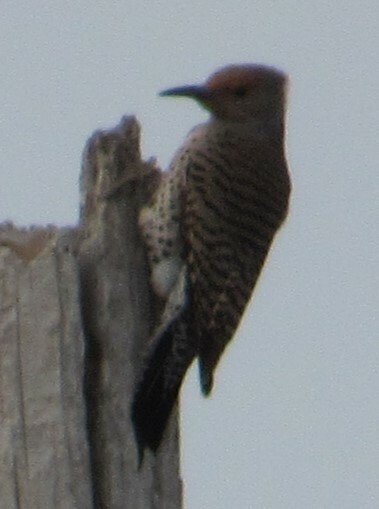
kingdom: Animalia
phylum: Chordata
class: Aves
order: Piciformes
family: Picidae
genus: Colaptes
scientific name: Colaptes auratus
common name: Northern flicker
